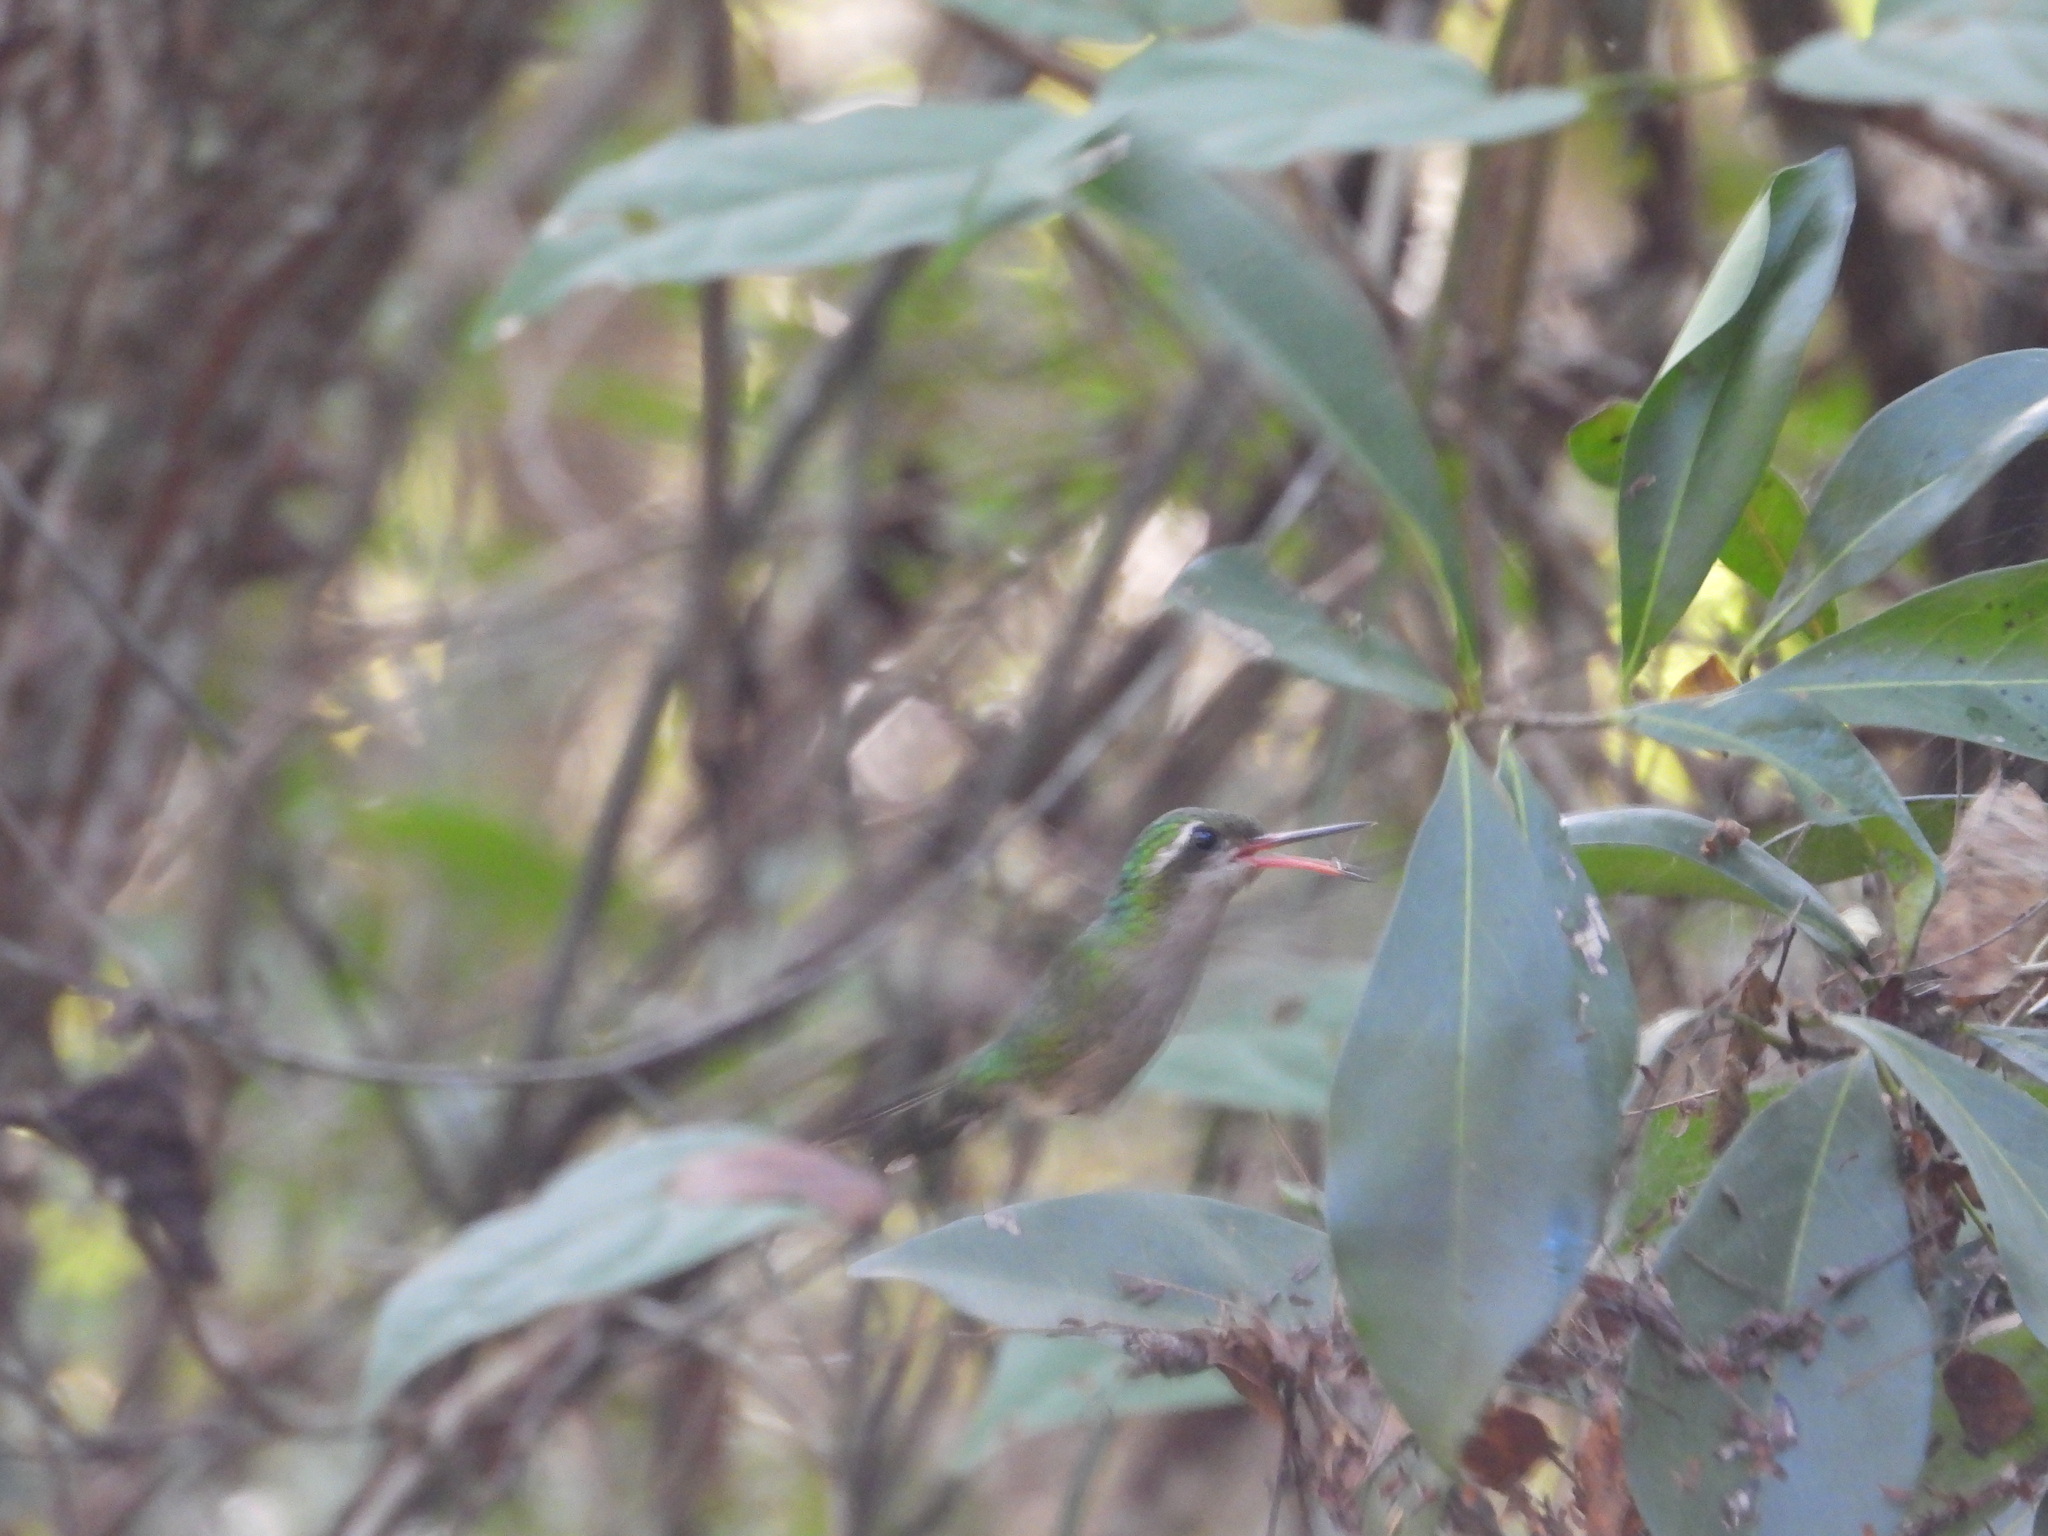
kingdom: Animalia
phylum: Chordata
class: Aves
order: Apodiformes
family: Trochilidae
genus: Cynanthus
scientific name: Cynanthus canivetii
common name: Canivet's emerald
